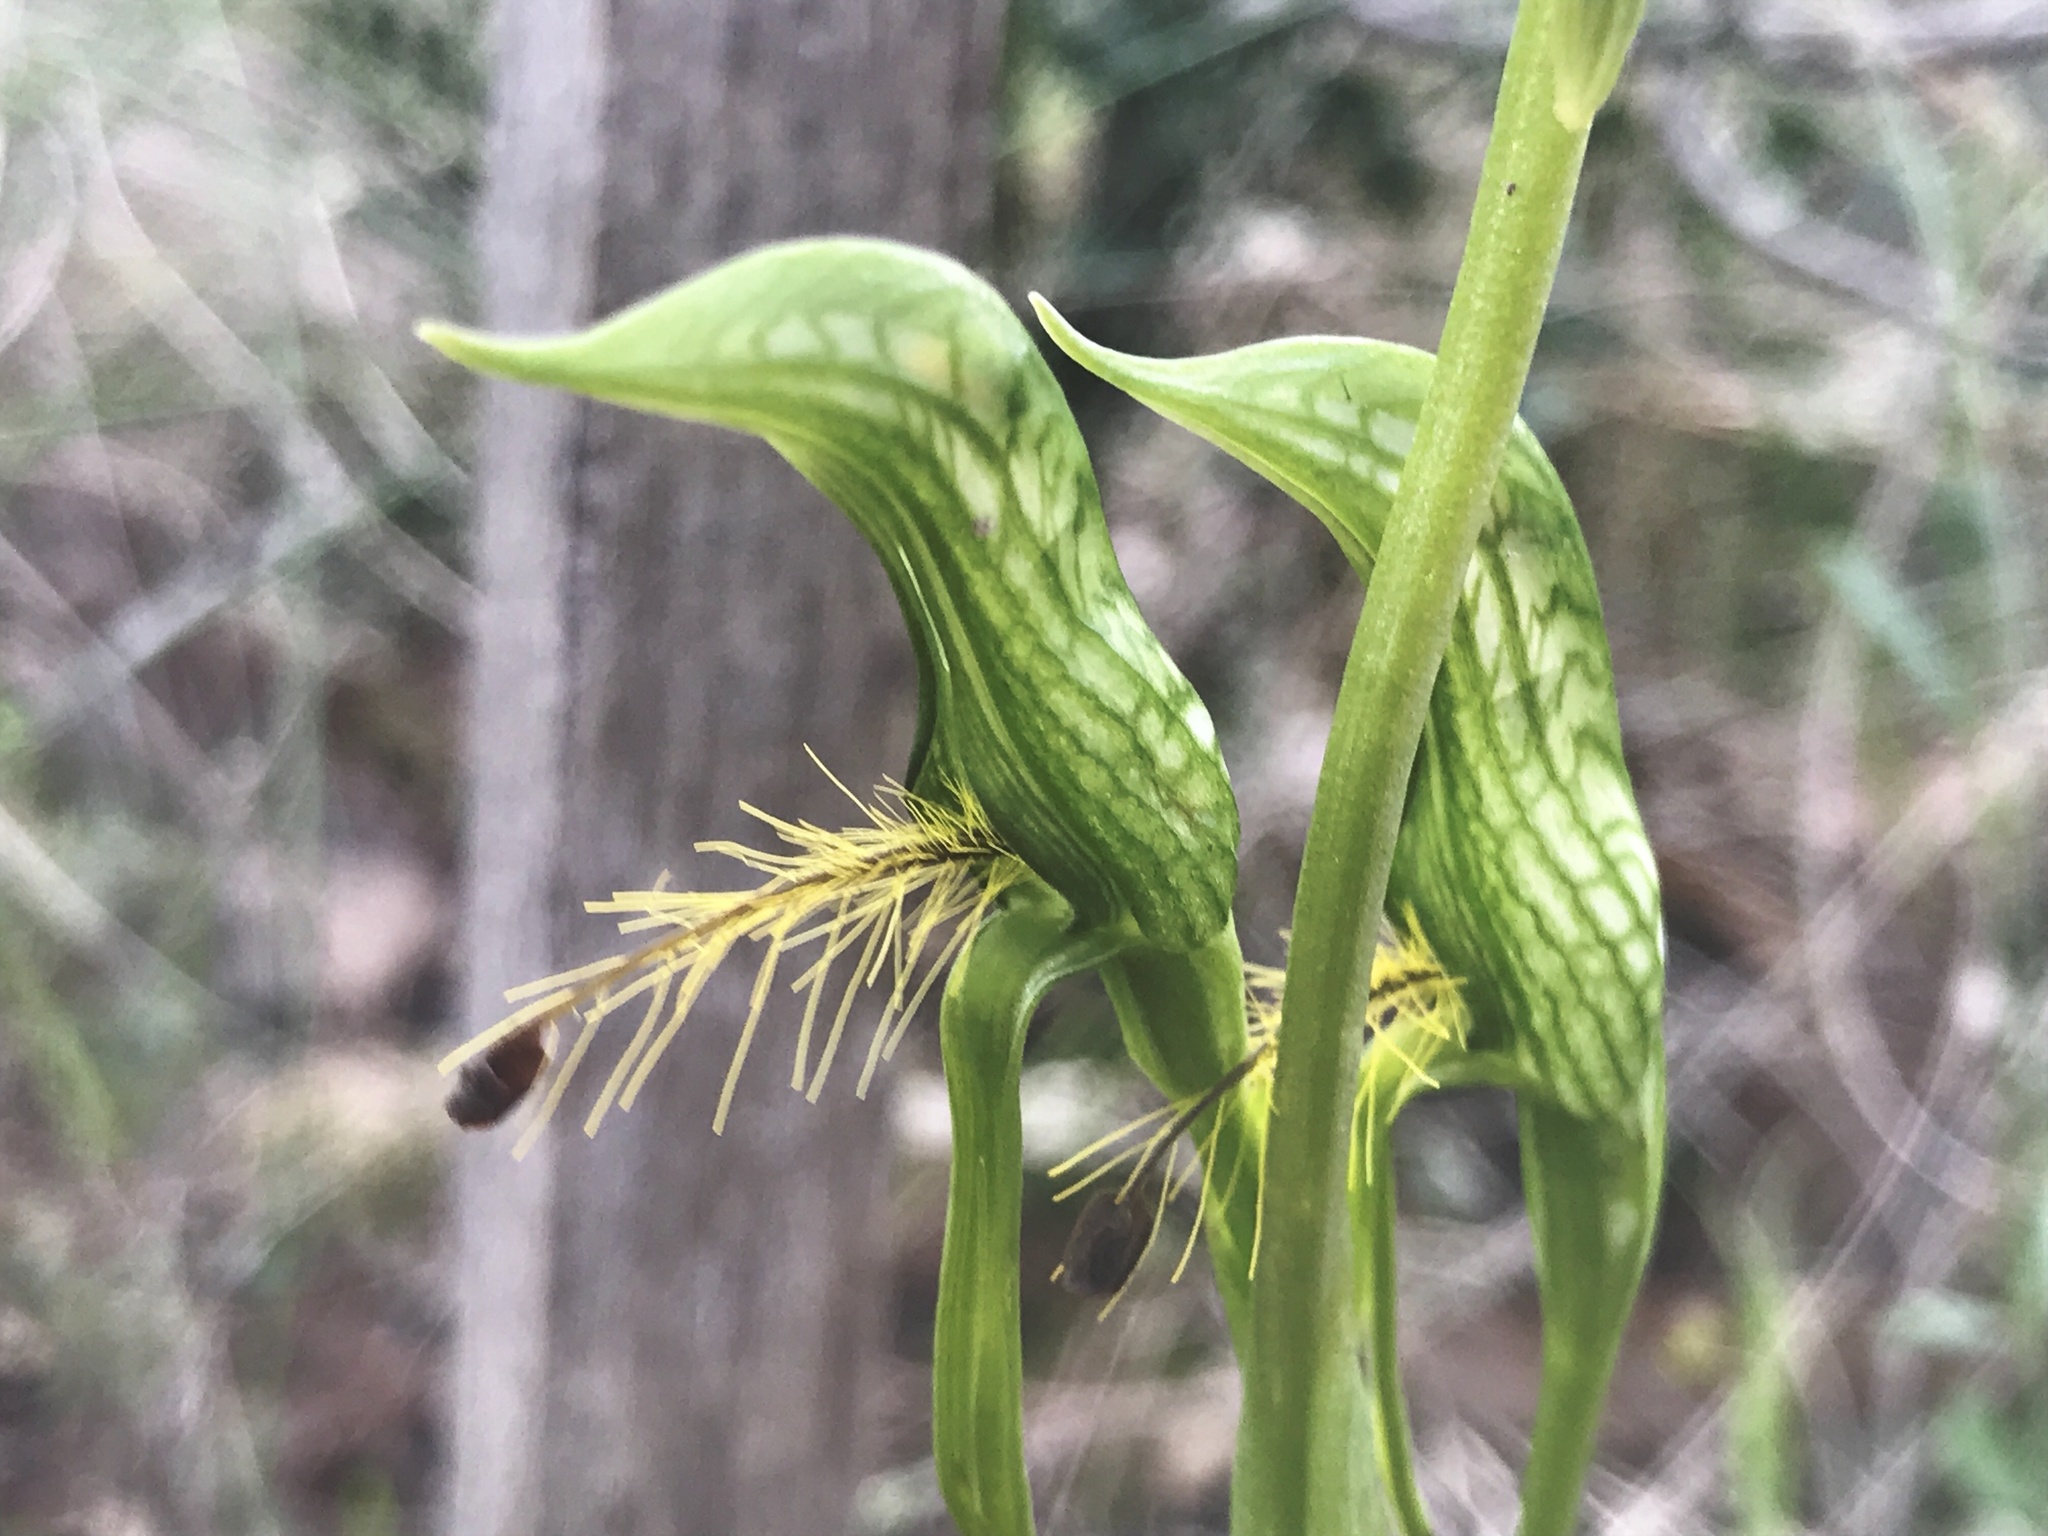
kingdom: Plantae
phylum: Tracheophyta
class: Liliopsida
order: Asparagales
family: Orchidaceae
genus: Pterostylis
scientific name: Pterostylis plumosa
